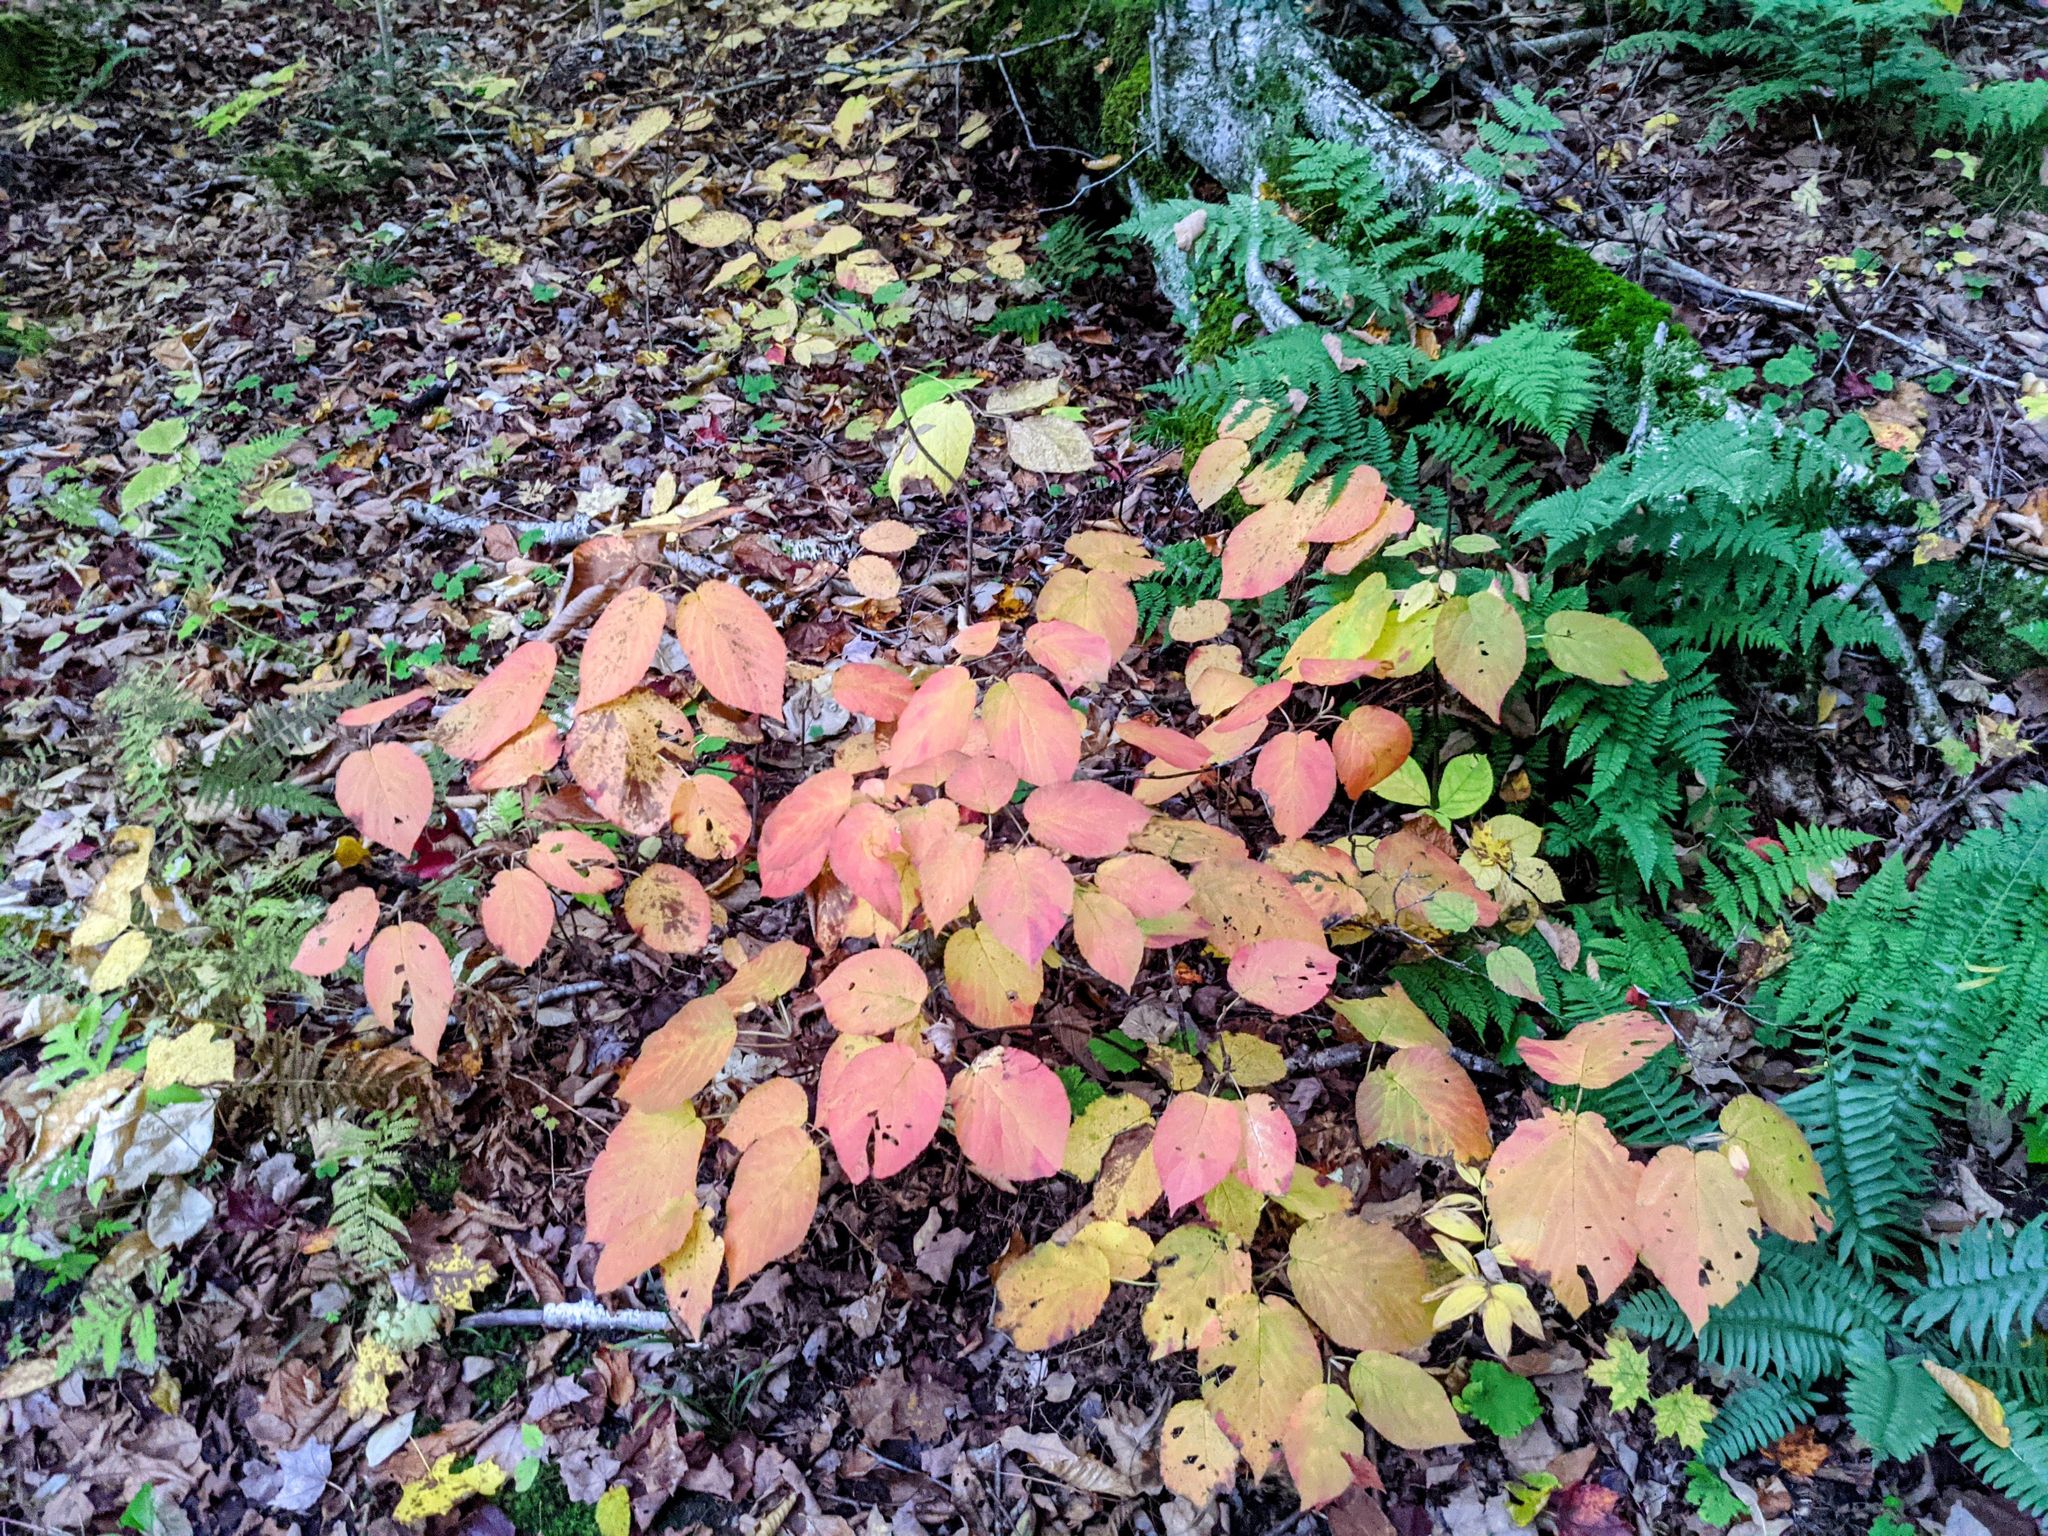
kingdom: Plantae
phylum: Tracheophyta
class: Magnoliopsida
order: Dipsacales
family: Viburnaceae
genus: Viburnum
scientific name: Viburnum lantanoides
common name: Hobblebush
